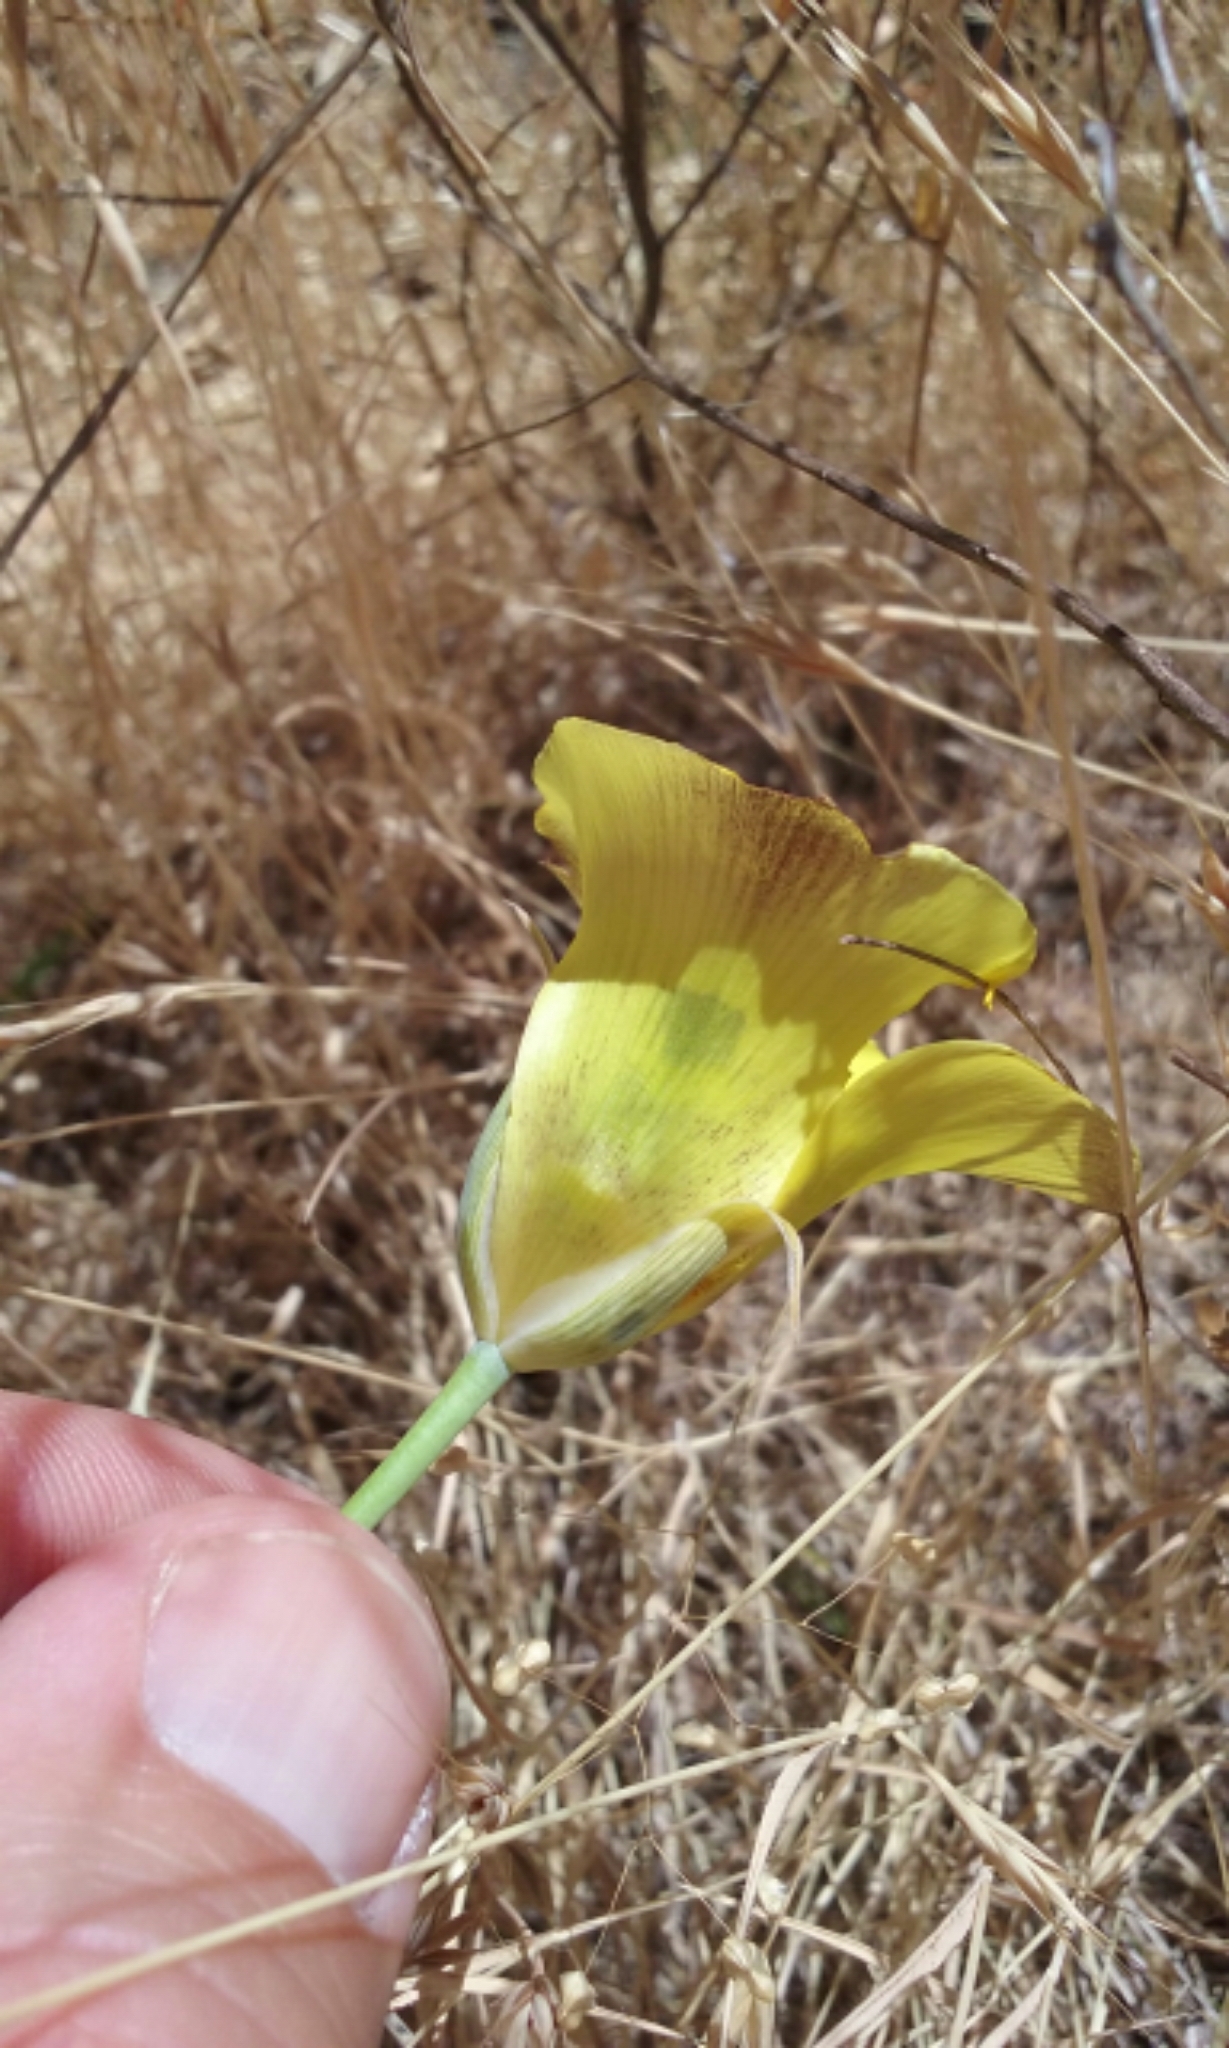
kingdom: Plantae
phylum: Tracheophyta
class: Liliopsida
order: Liliales
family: Liliaceae
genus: Calochortus
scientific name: Calochortus luteus
